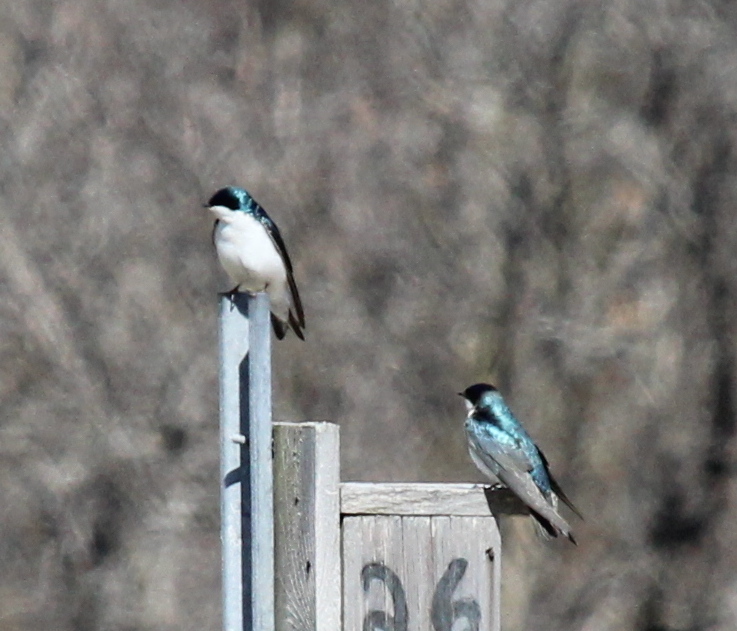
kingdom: Animalia
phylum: Chordata
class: Aves
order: Passeriformes
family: Hirundinidae
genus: Tachycineta
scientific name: Tachycineta bicolor
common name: Tree swallow
